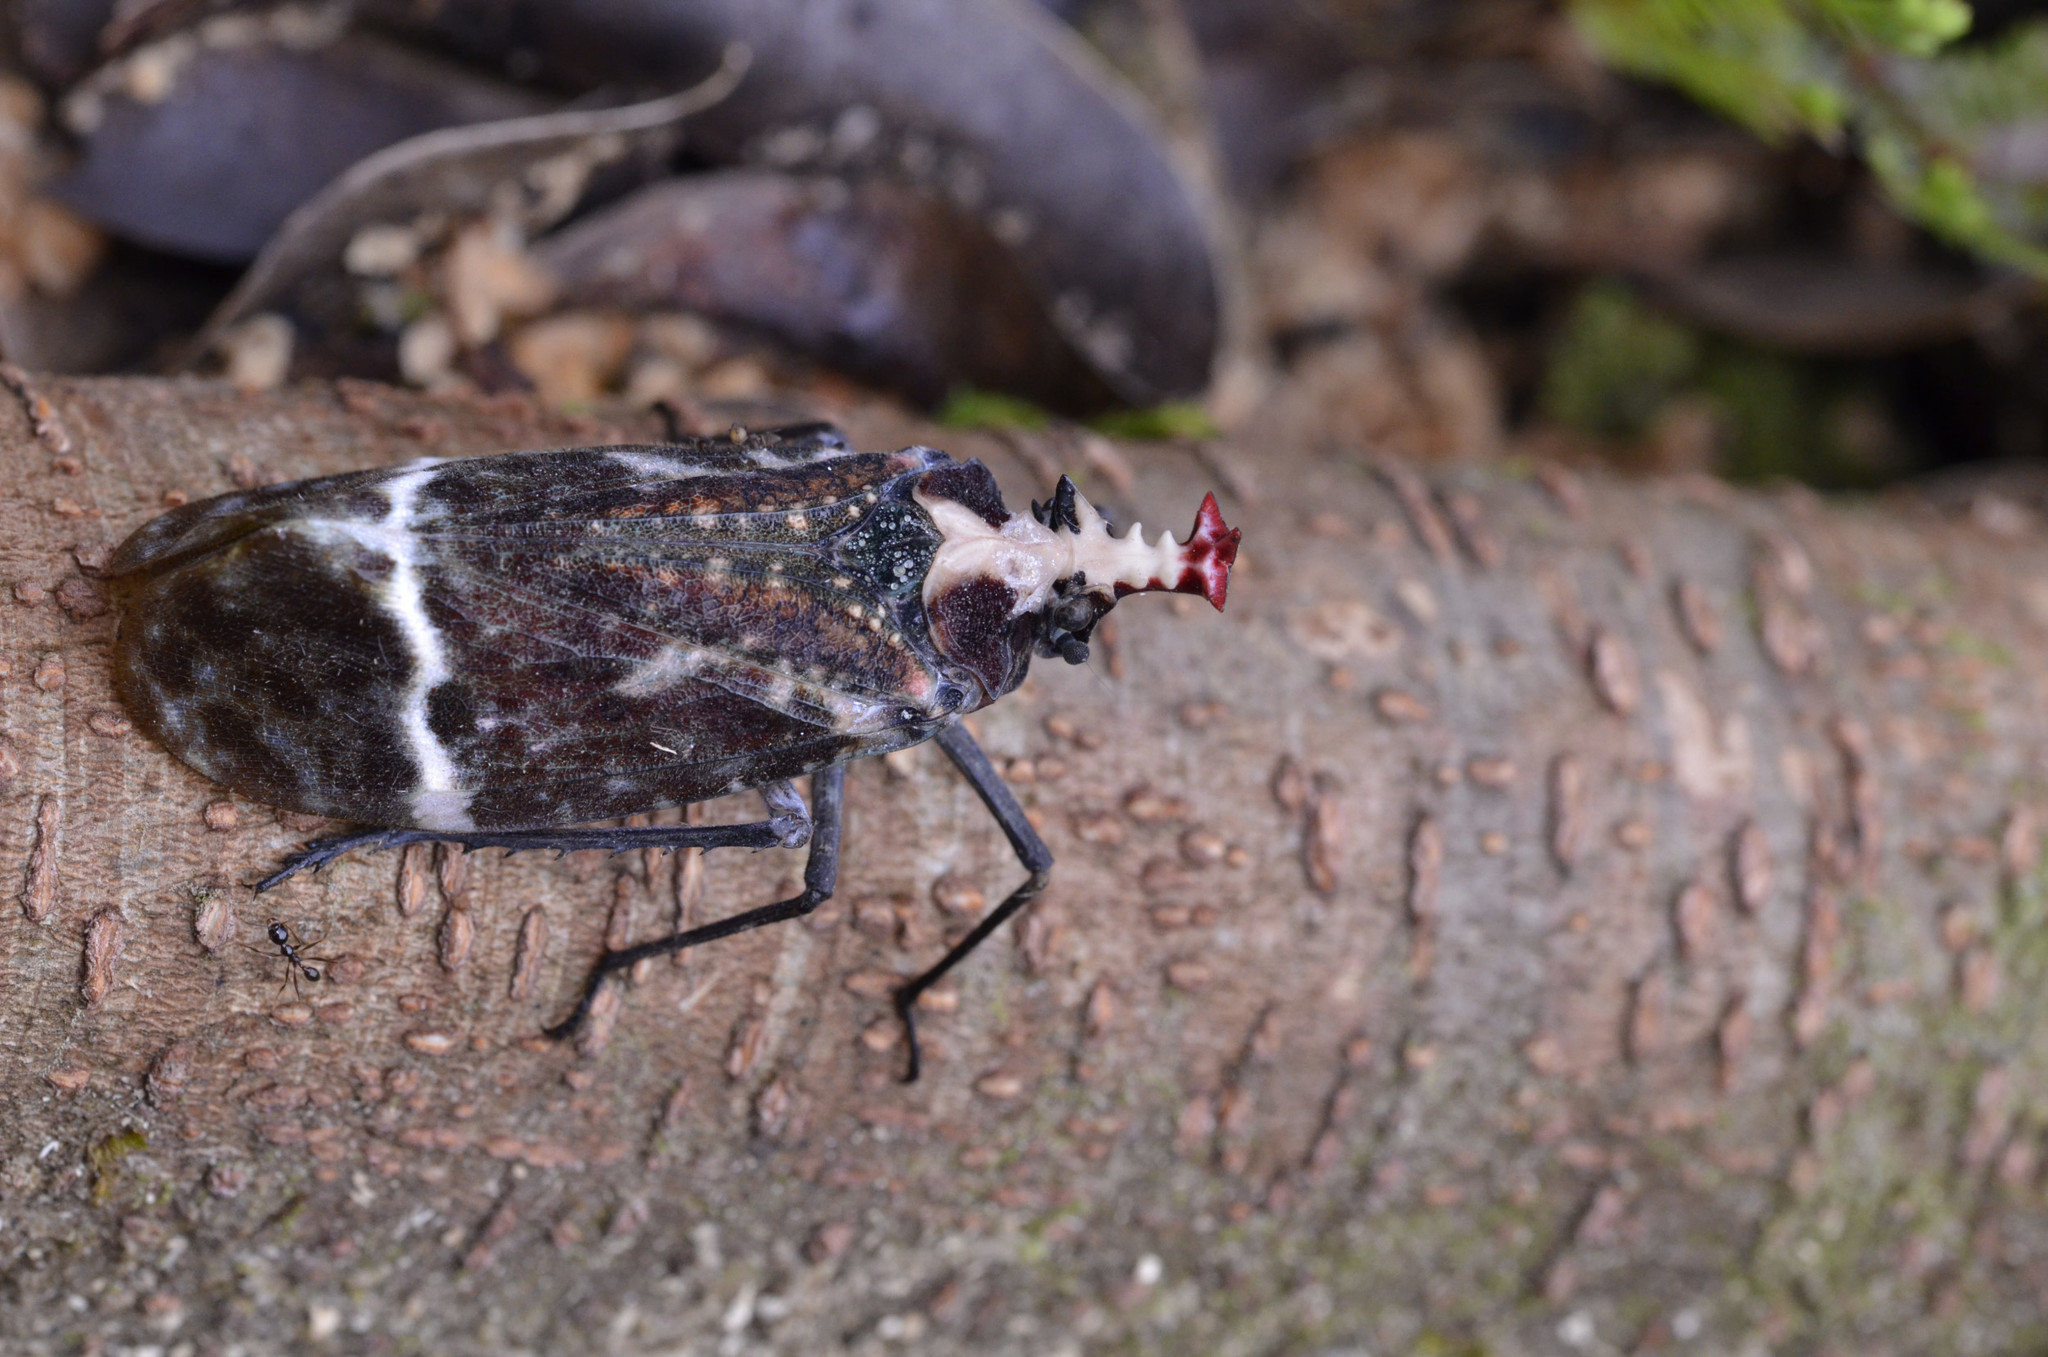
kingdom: Animalia
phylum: Arthropoda
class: Insecta
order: Hemiptera
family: Fulgoridae
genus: Phrictus
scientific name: Phrictus diligens
